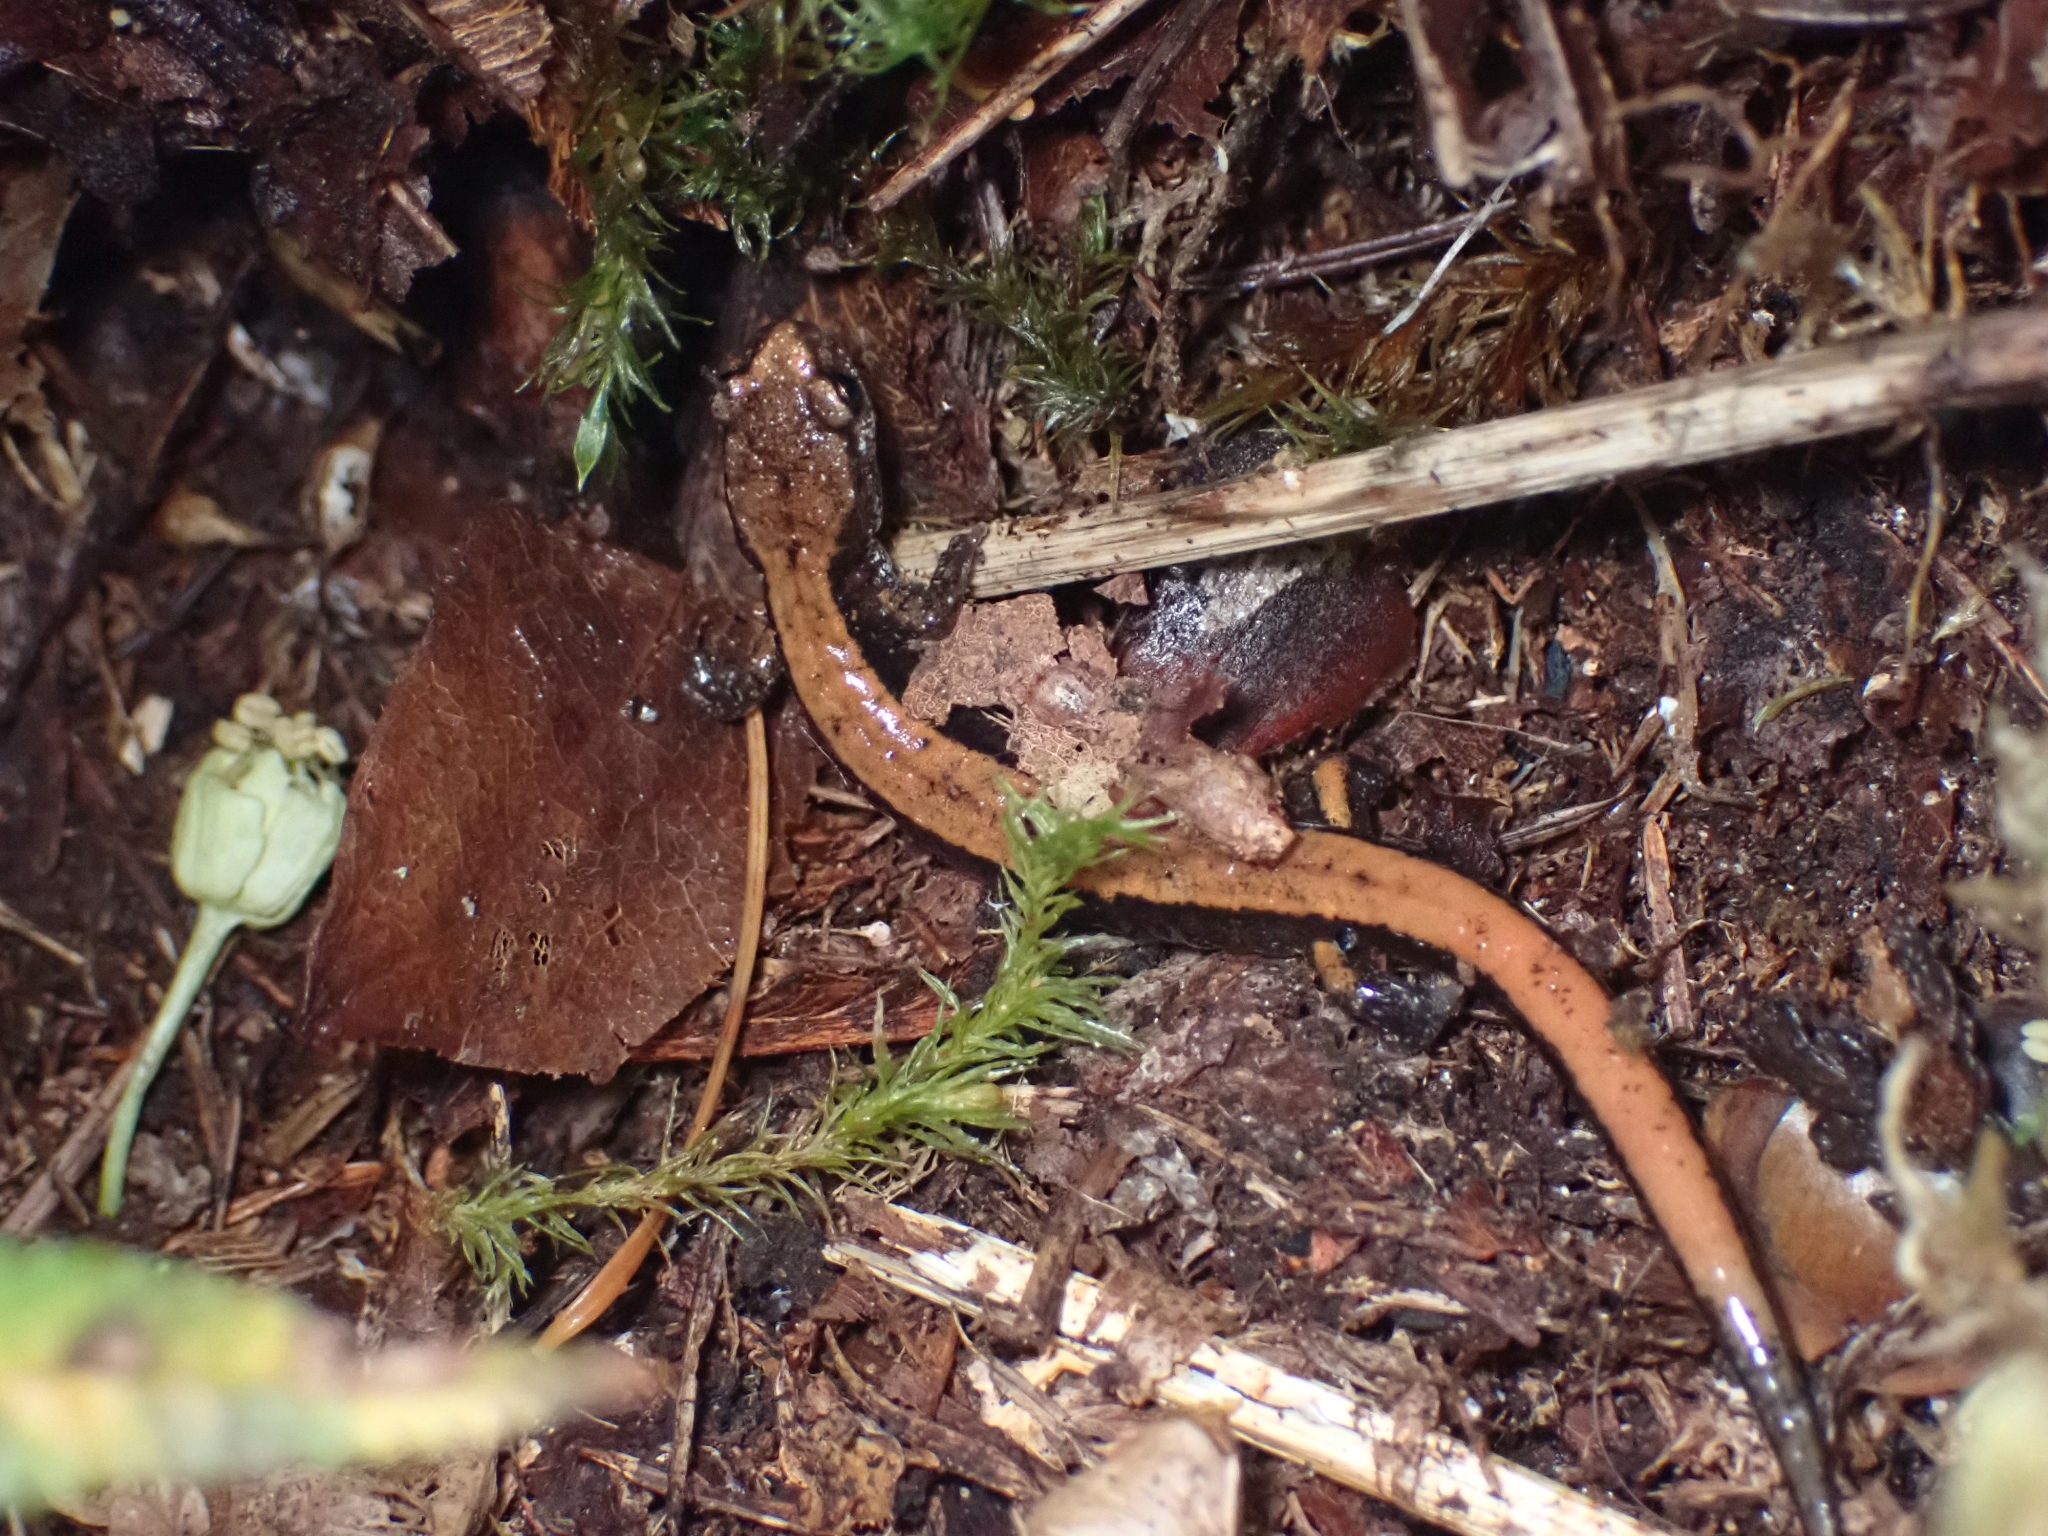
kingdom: Animalia
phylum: Chordata
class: Amphibia
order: Caudata
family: Plethodontidae
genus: Plethodon
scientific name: Plethodon vehiculum
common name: Western red-backed salamander
